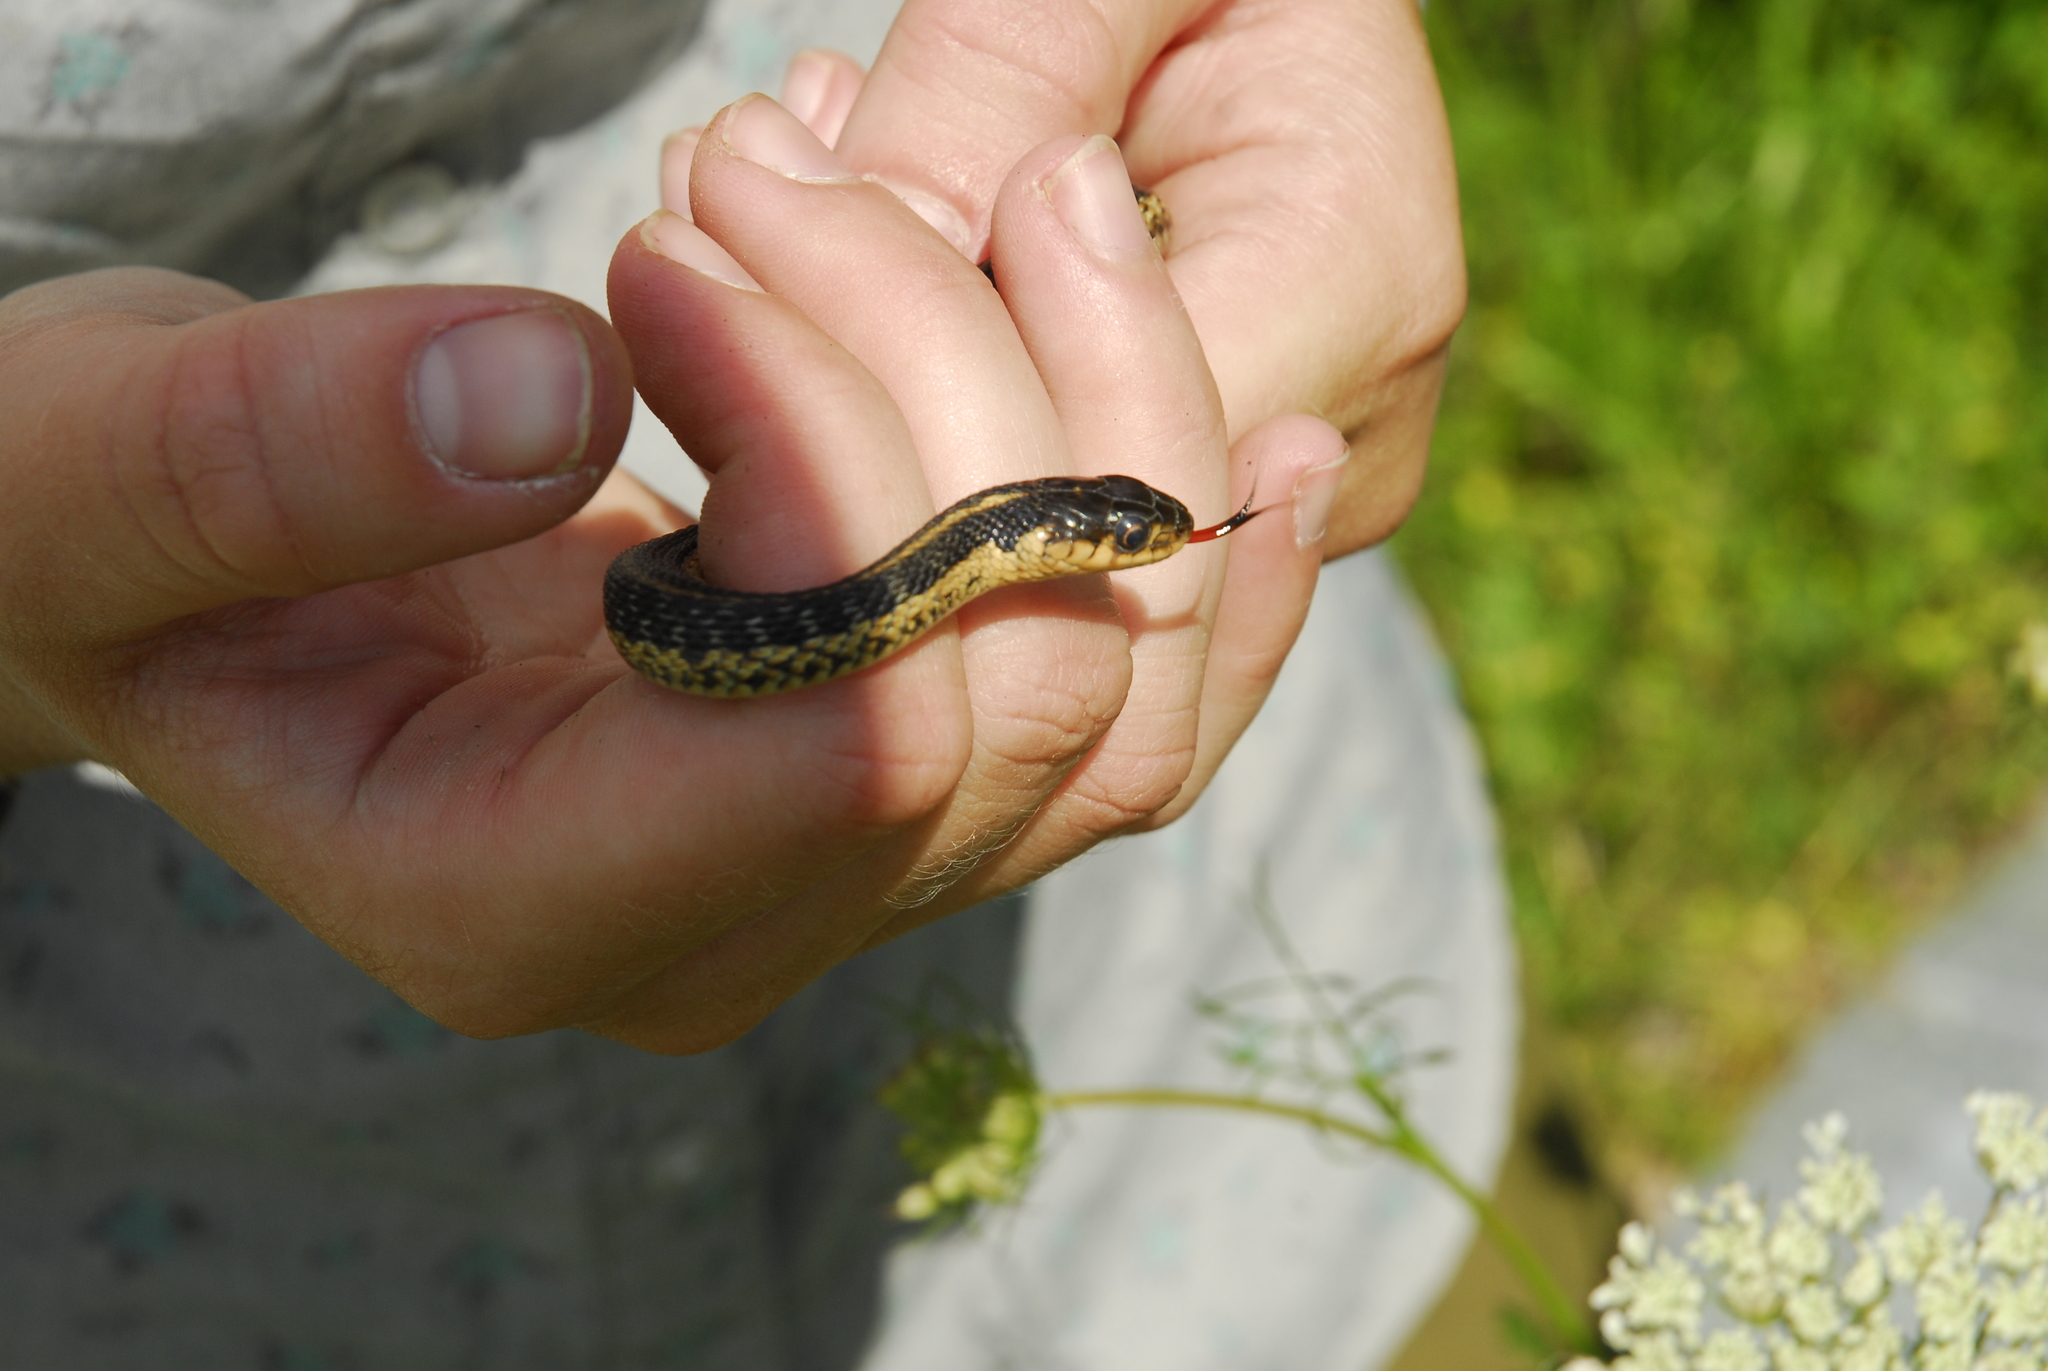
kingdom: Animalia
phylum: Chordata
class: Squamata
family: Colubridae
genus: Thamnophis
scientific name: Thamnophis sirtalis
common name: Common garter snake
